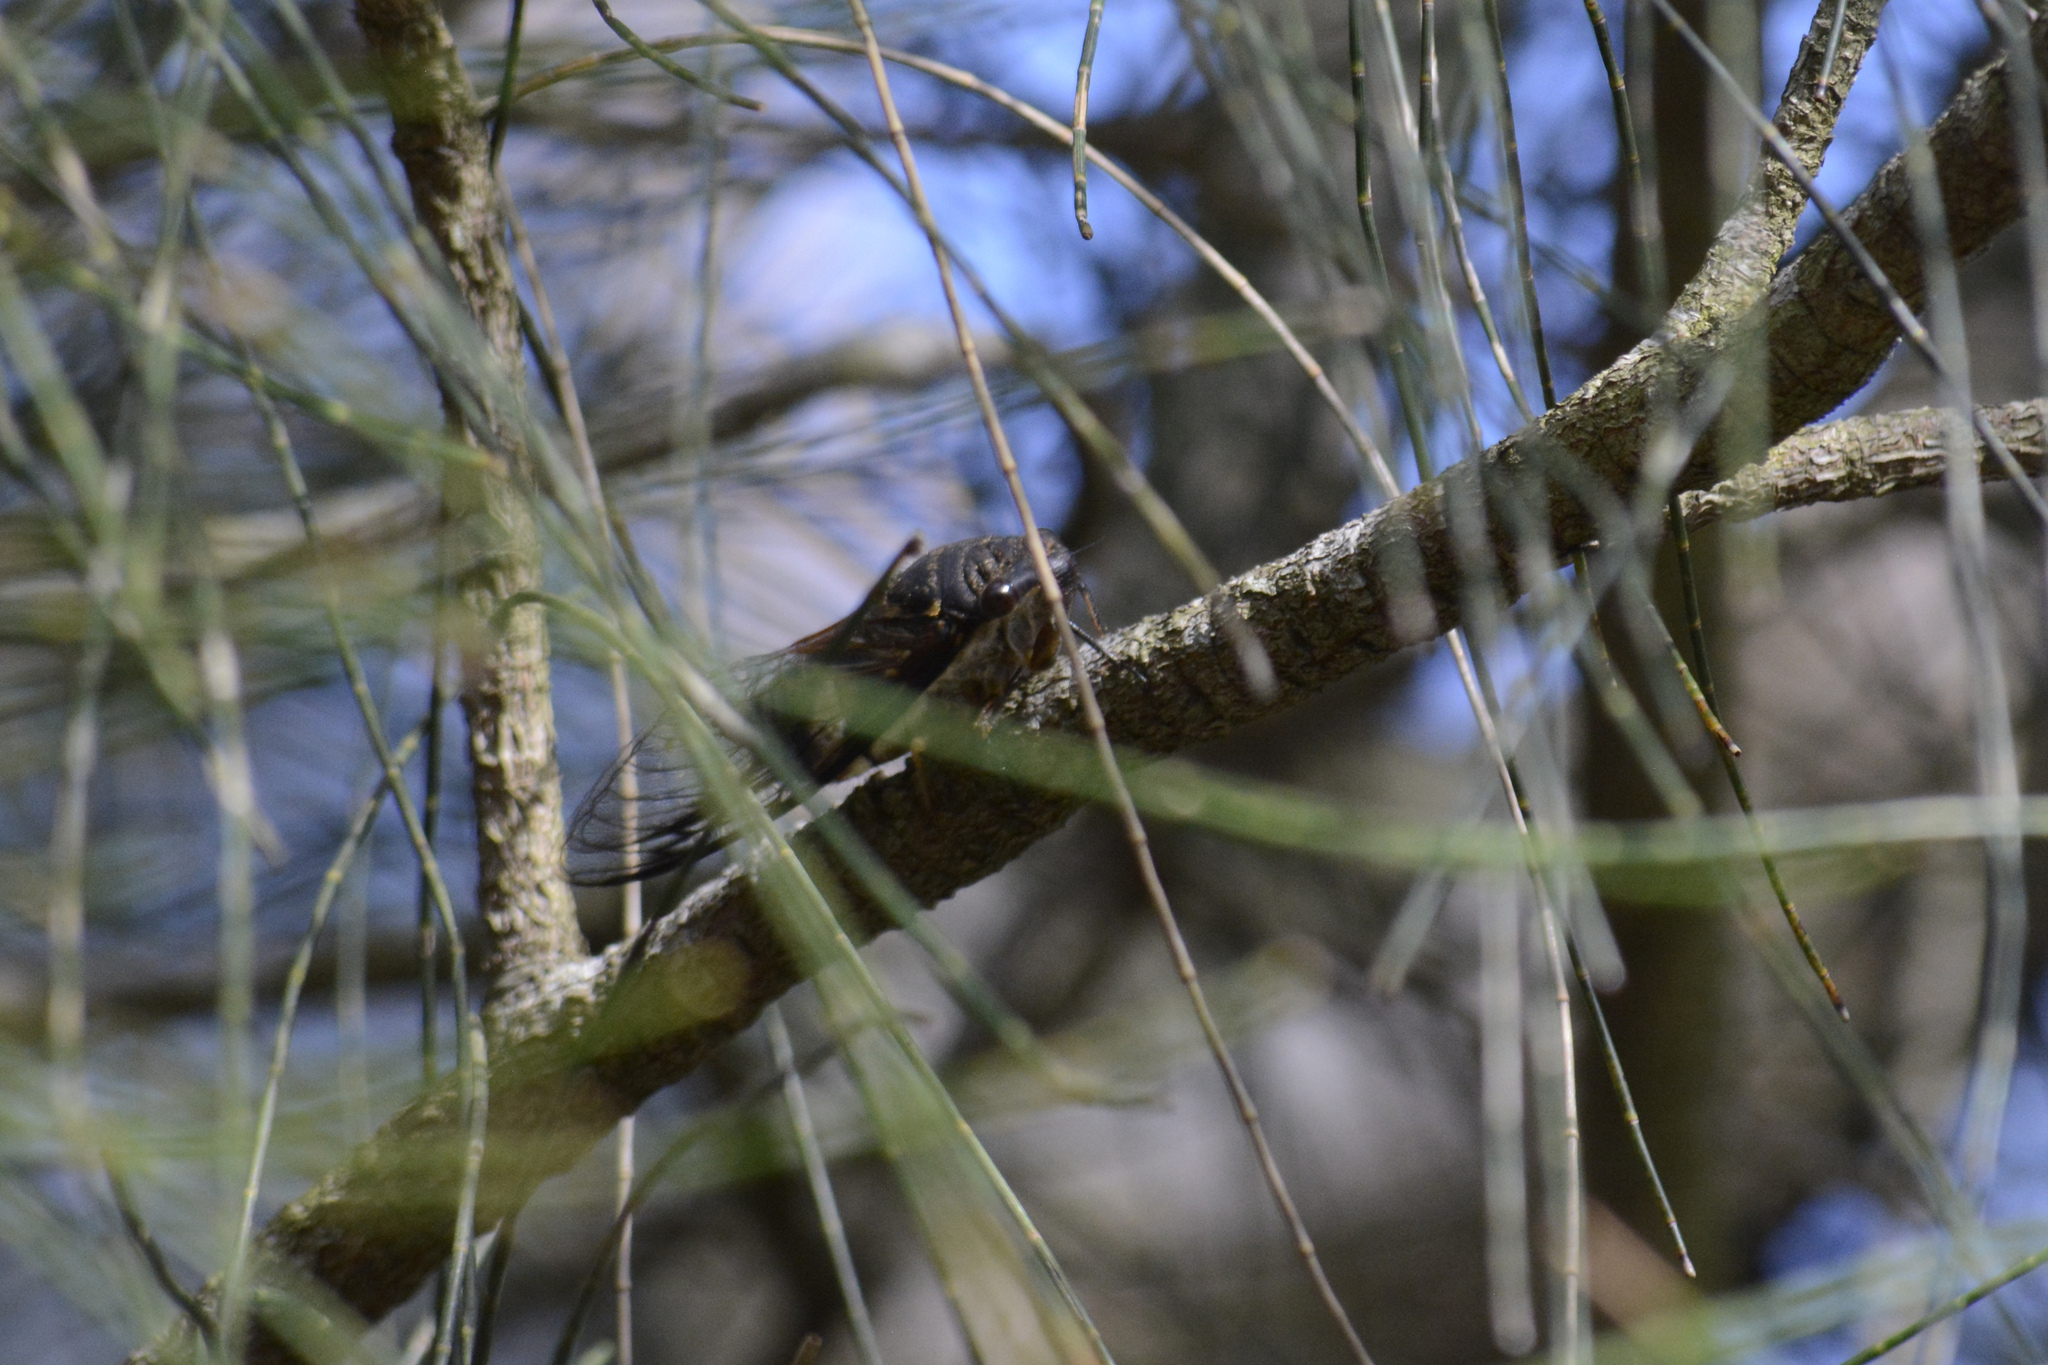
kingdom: Animalia
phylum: Arthropoda
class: Insecta
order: Hemiptera
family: Cicadidae
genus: Psaltoda
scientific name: Psaltoda plaga
